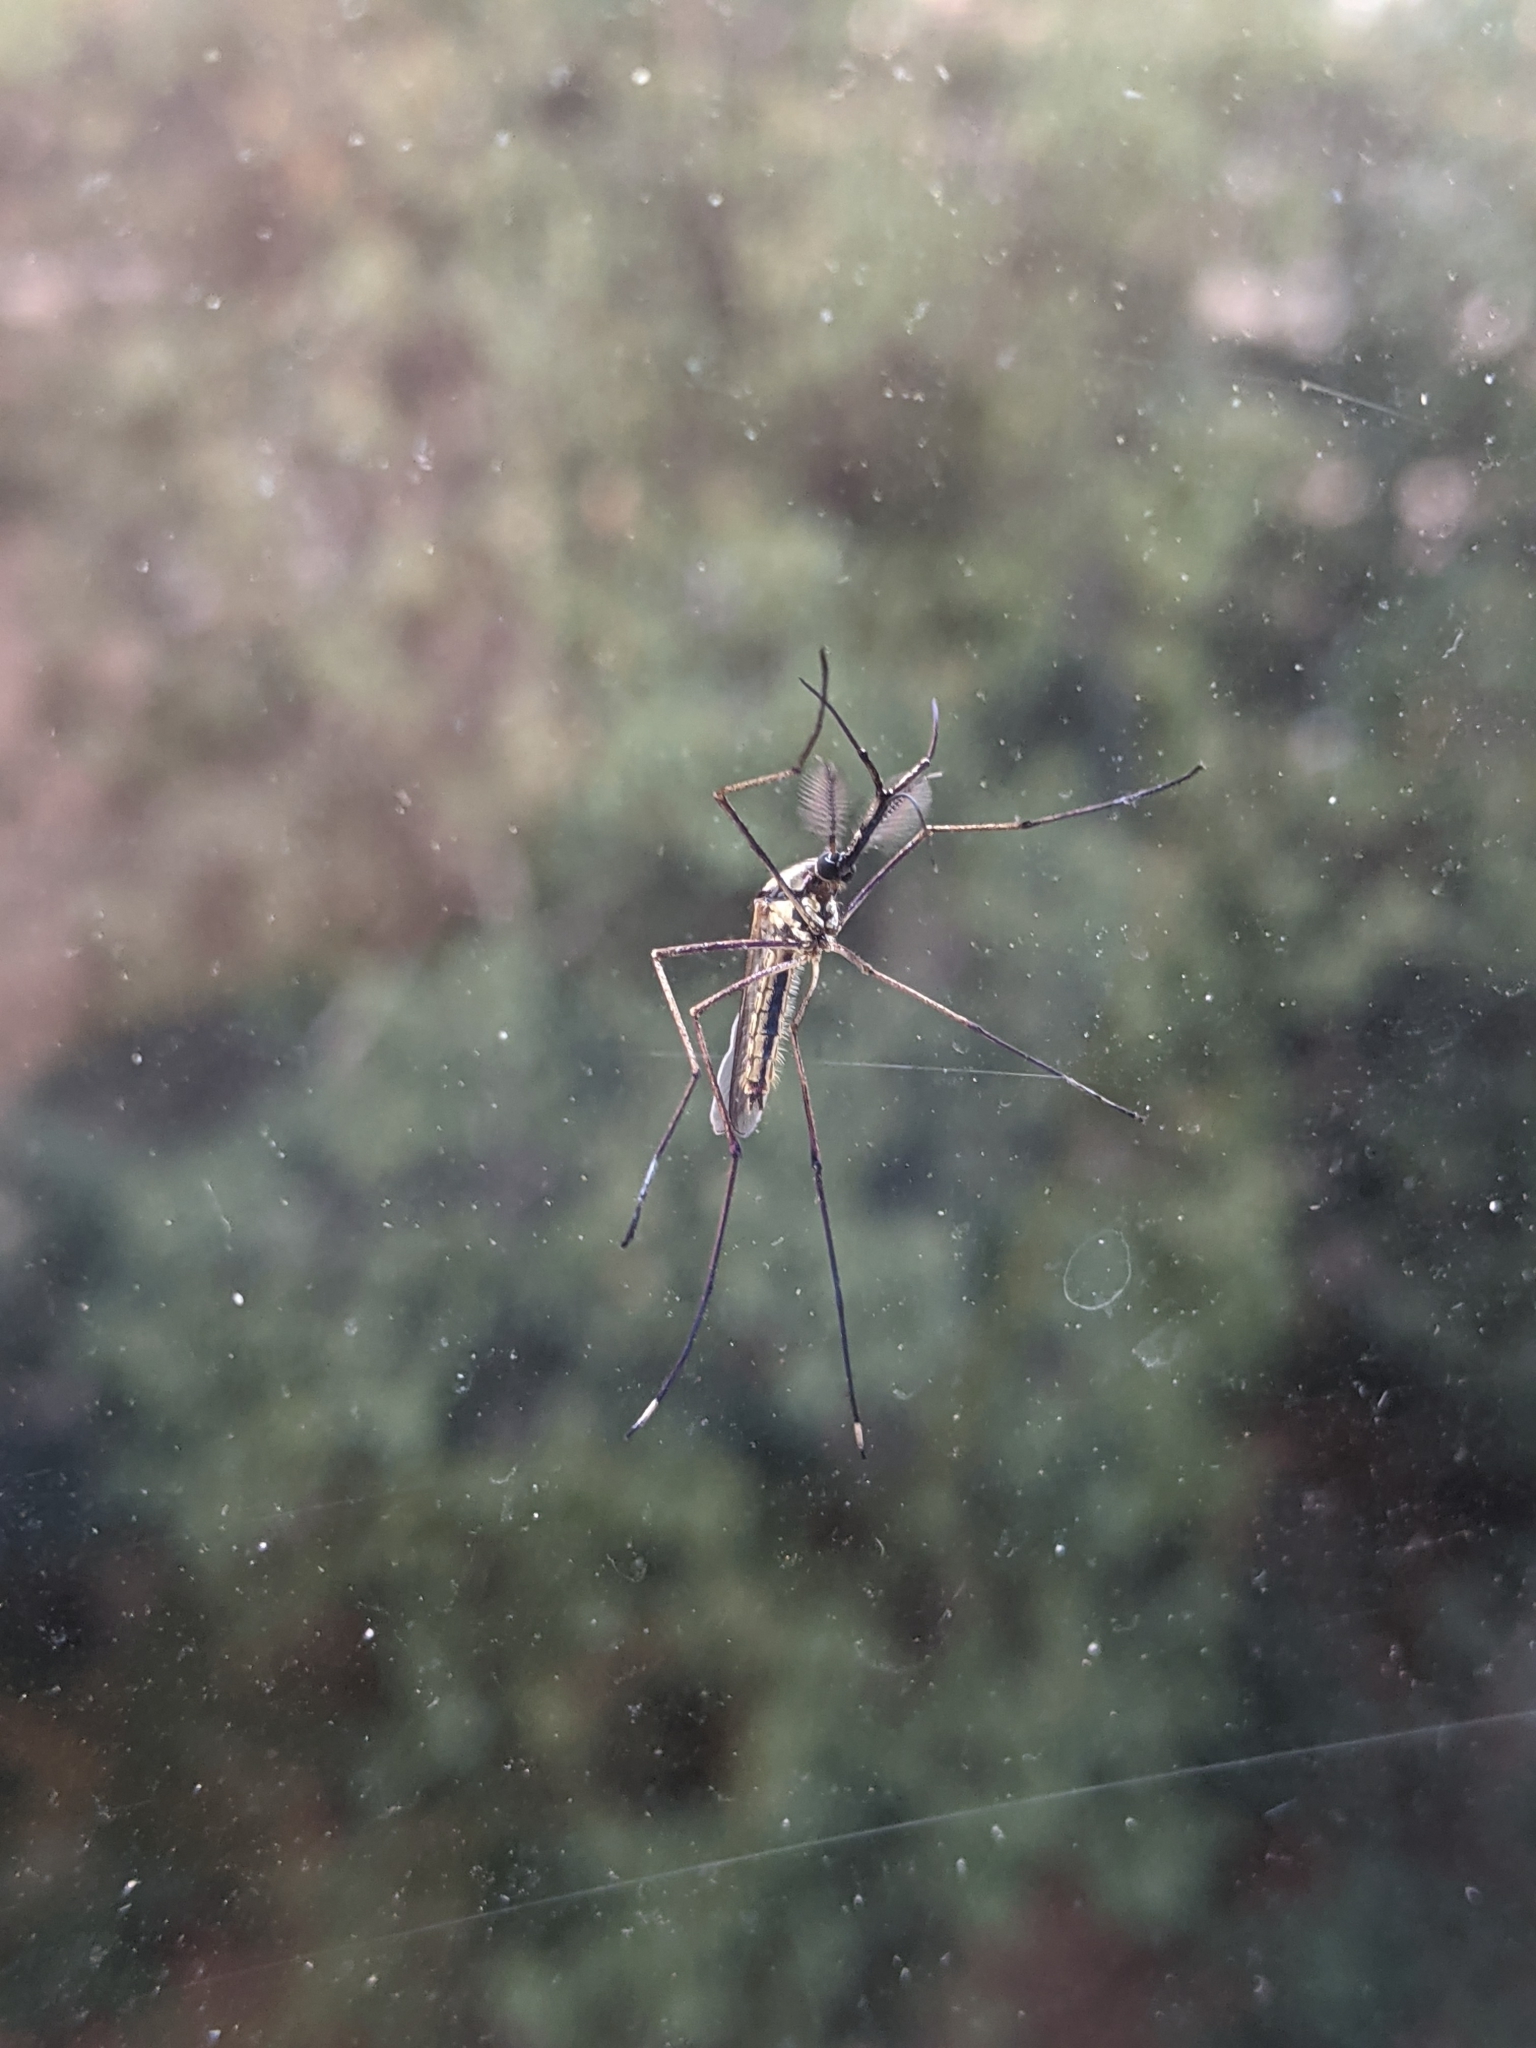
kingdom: Animalia
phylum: Arthropoda
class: Insecta
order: Diptera
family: Culicidae
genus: Toxorhynchites
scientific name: Toxorhynchites rutilus
